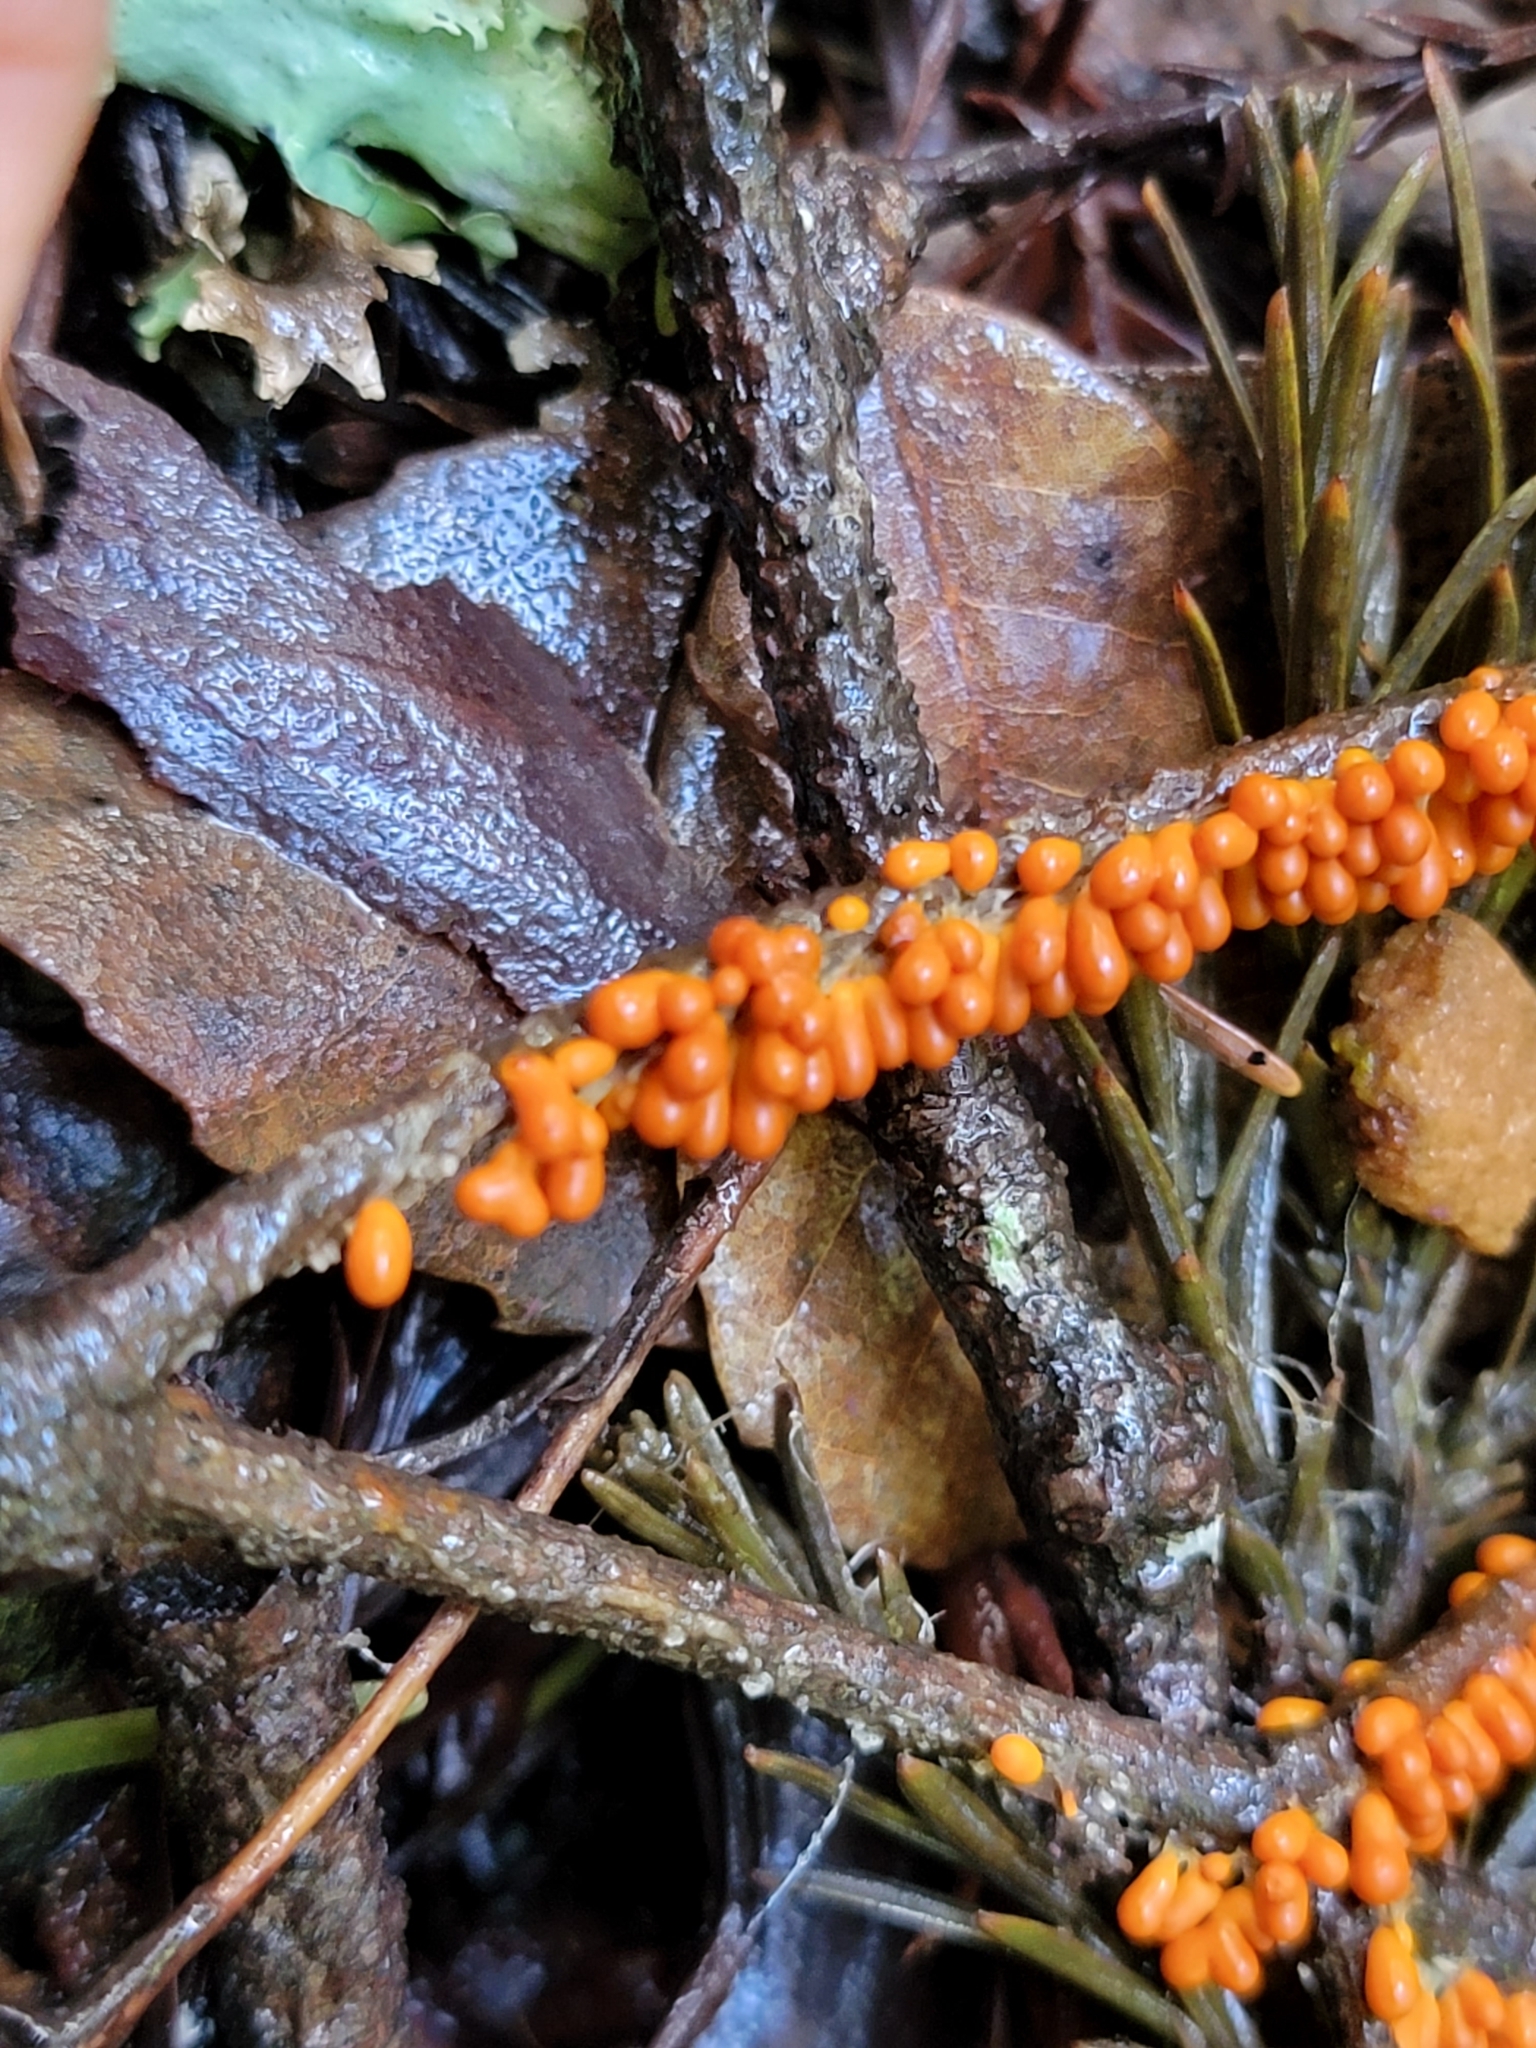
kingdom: Protozoa
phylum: Mycetozoa
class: Myxomycetes
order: Physarales
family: Physaraceae
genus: Leocarpus
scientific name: Leocarpus fragilis
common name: Insect-egg slime
